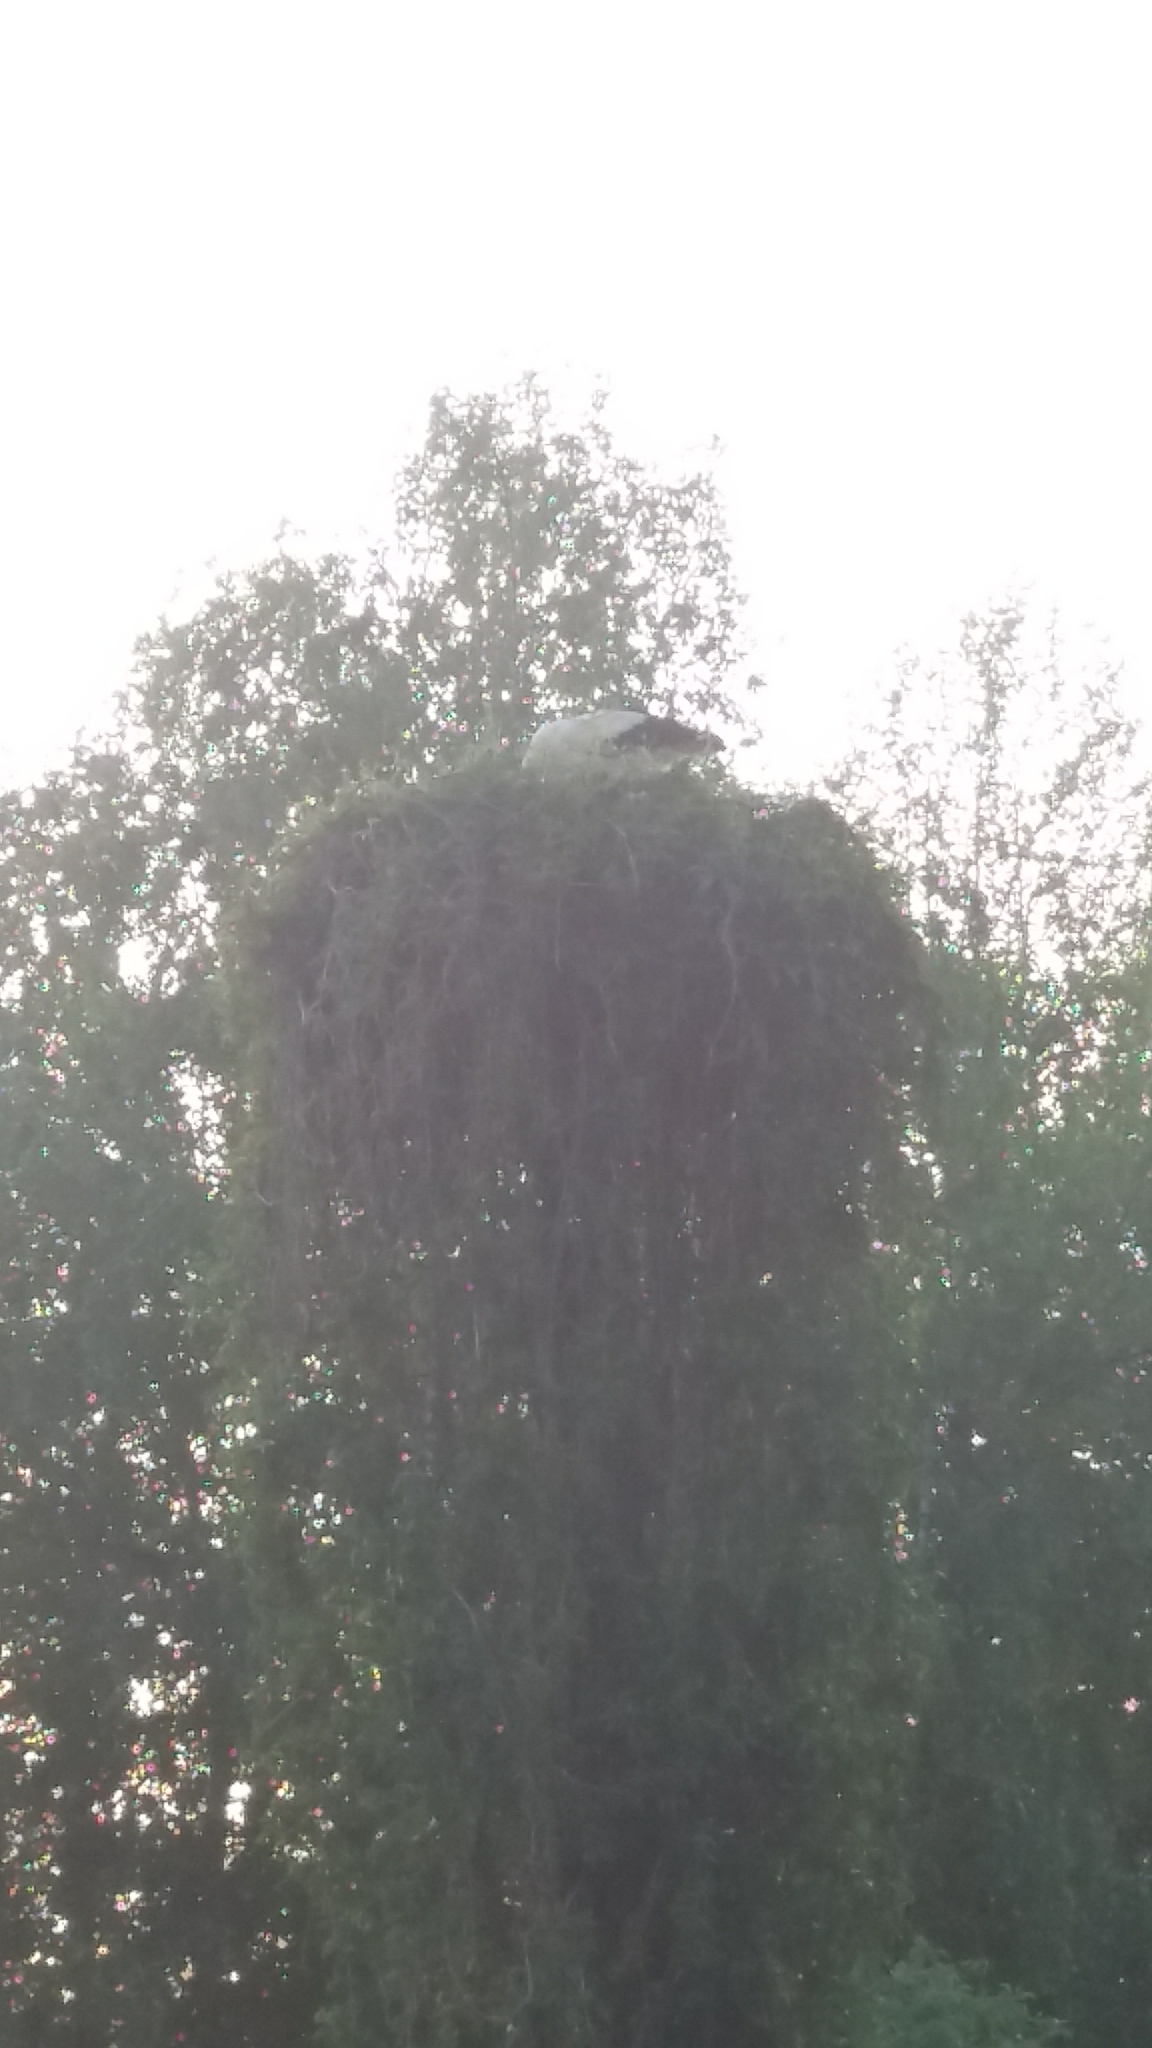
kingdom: Animalia
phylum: Chordata
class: Aves
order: Ciconiiformes
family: Ciconiidae
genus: Ciconia
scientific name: Ciconia ciconia
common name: White stork
